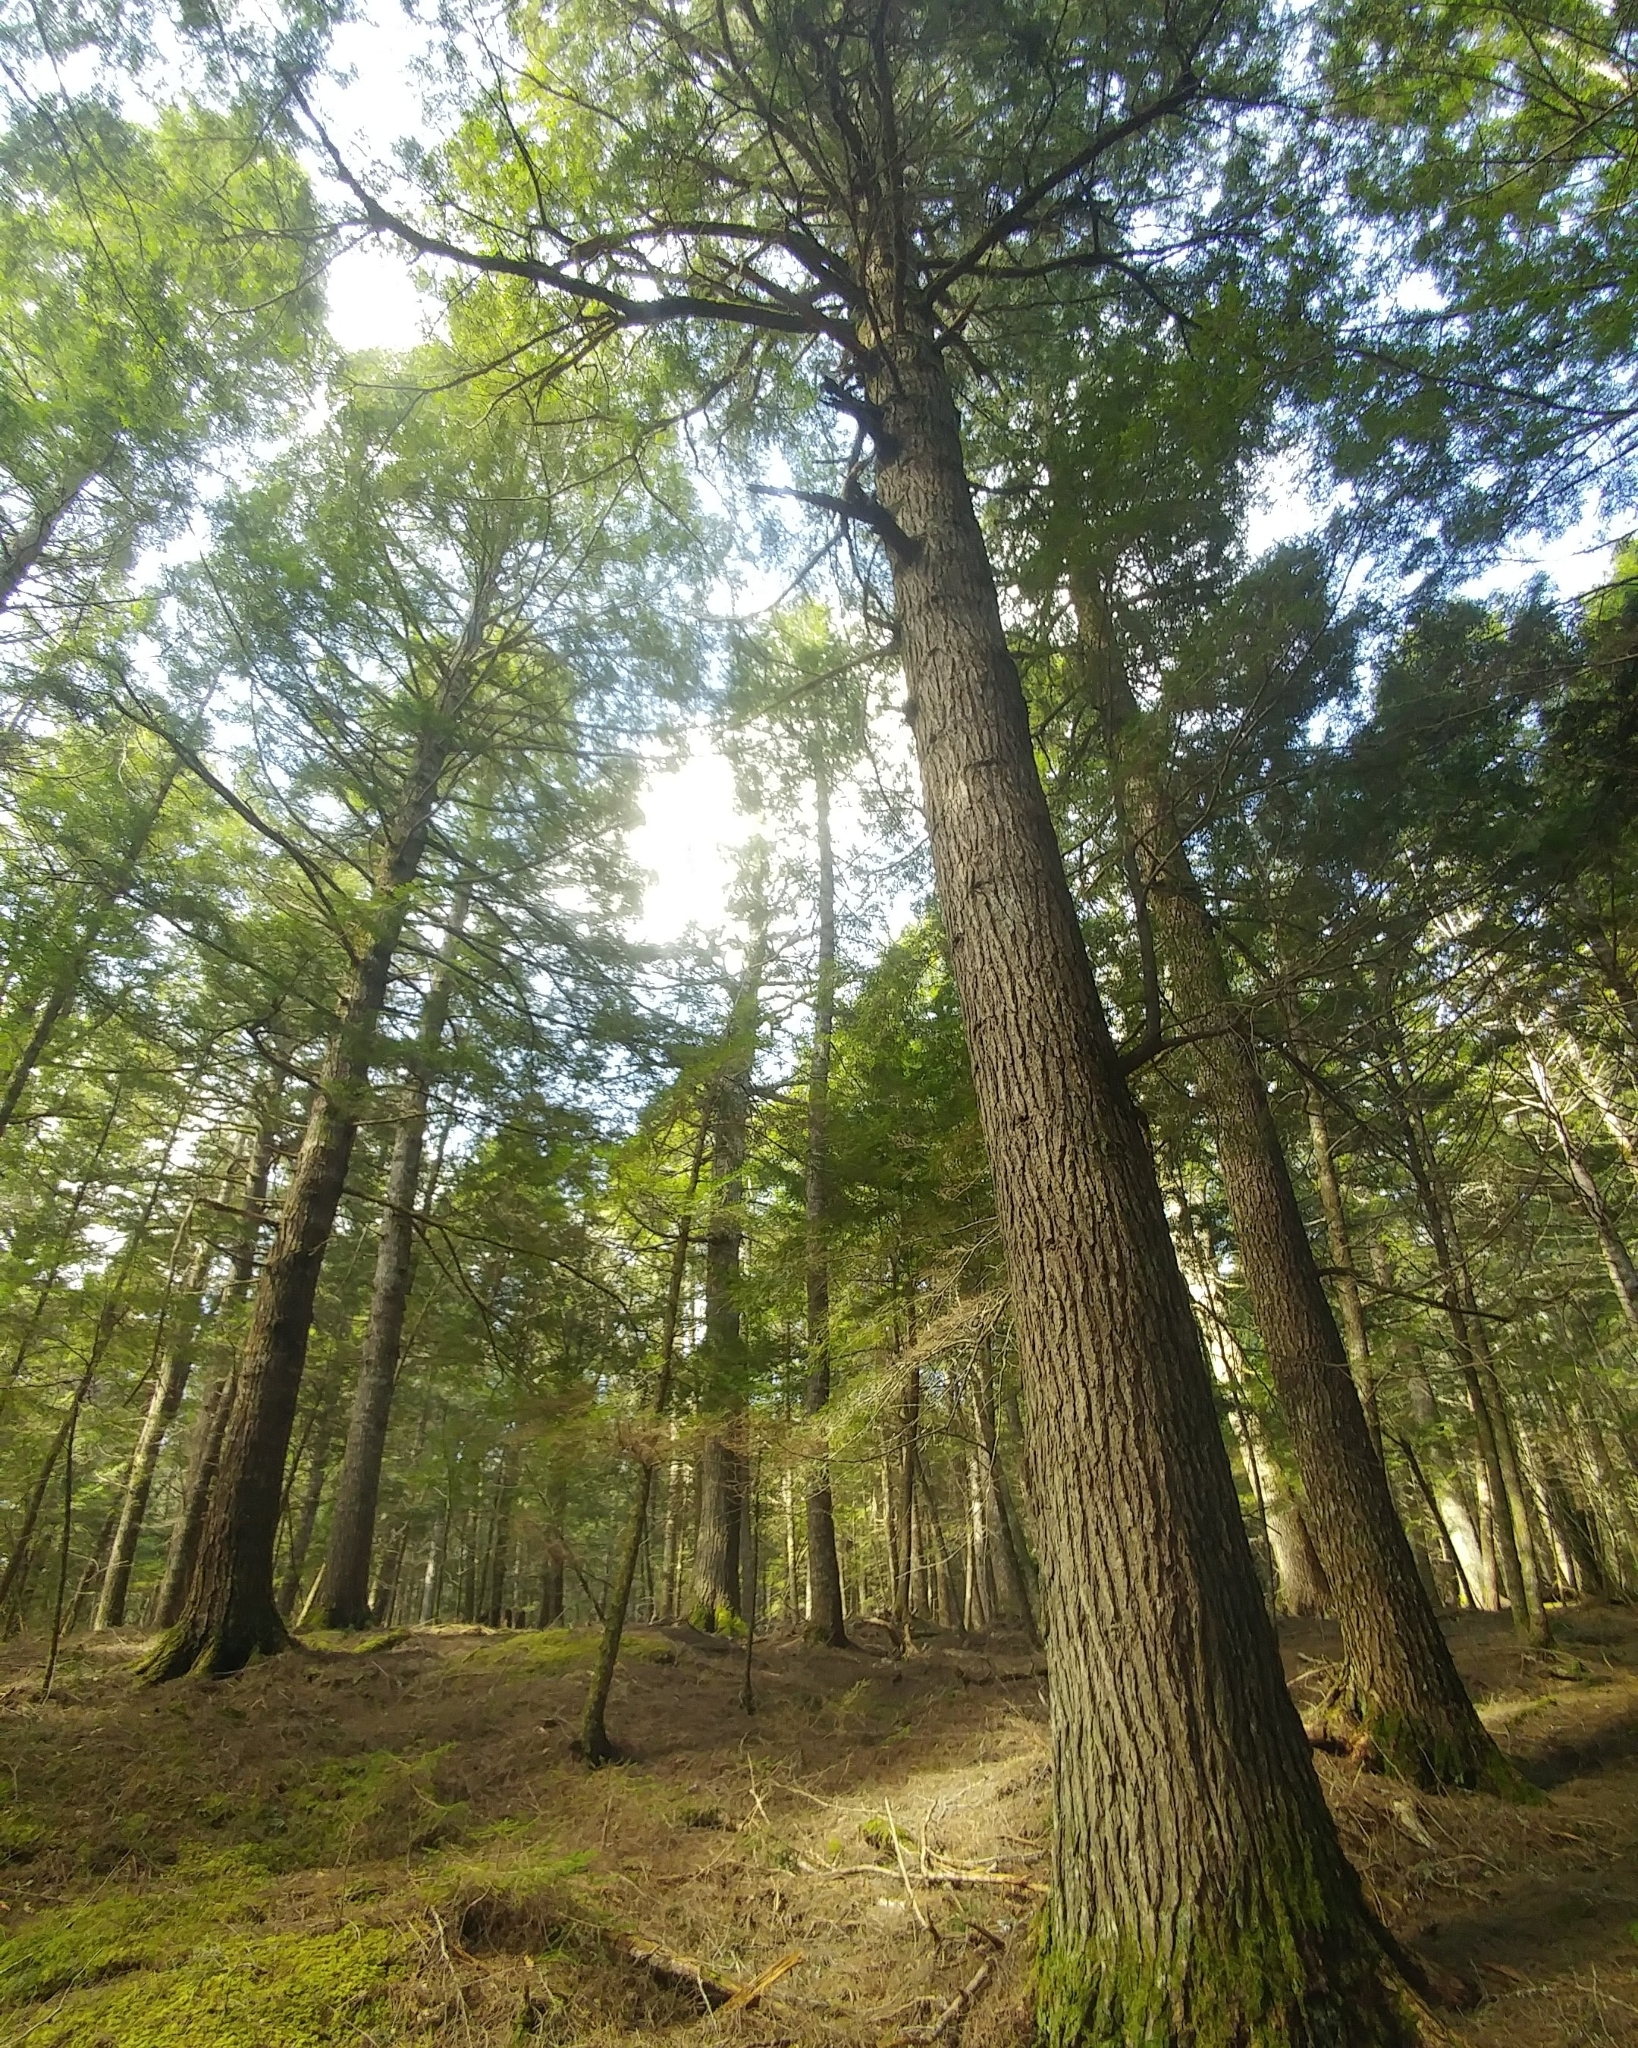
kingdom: Plantae
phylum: Tracheophyta
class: Pinopsida
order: Pinales
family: Pinaceae
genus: Tsuga
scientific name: Tsuga canadensis
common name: Eastern hemlock
